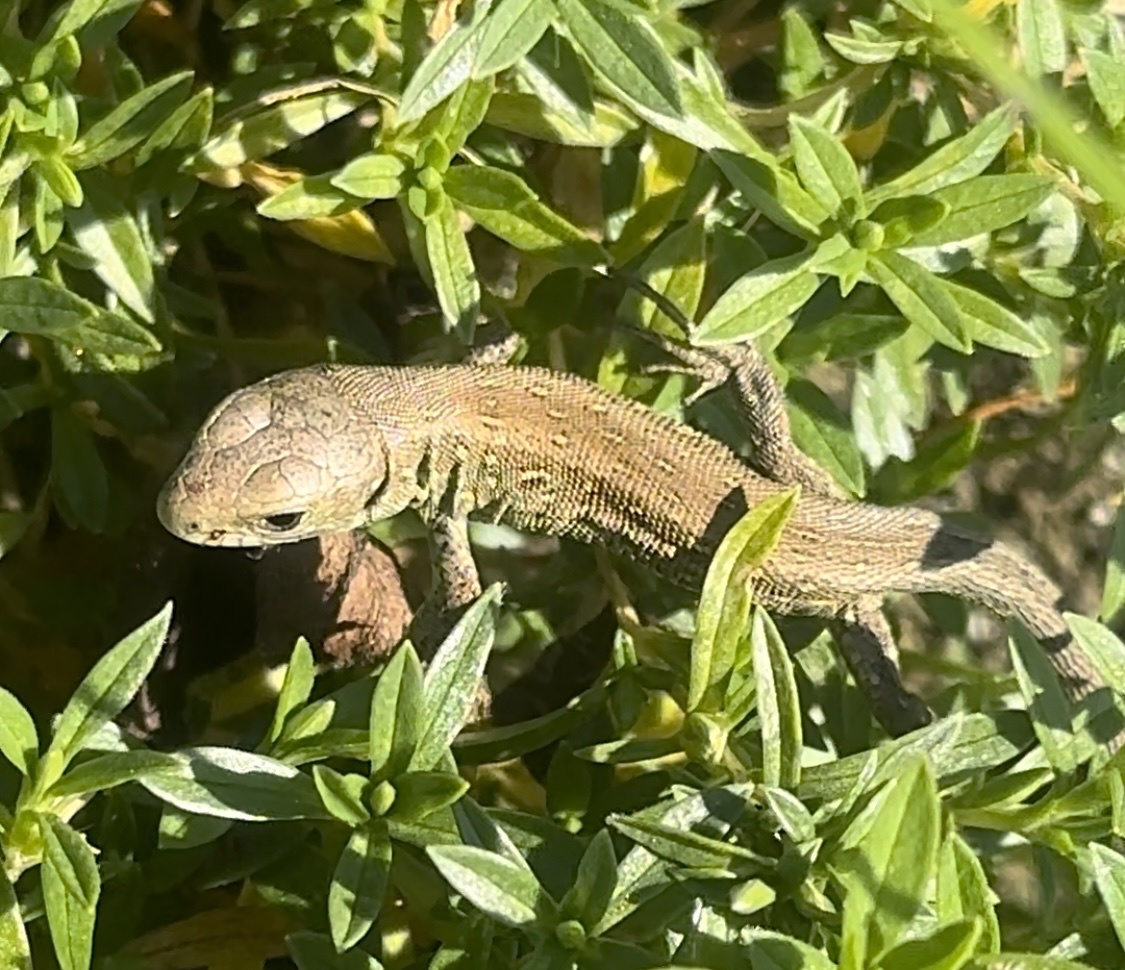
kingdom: Animalia
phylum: Chordata
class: Squamata
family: Lacertidae
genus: Lacerta
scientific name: Lacerta agilis
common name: Sand lizard
